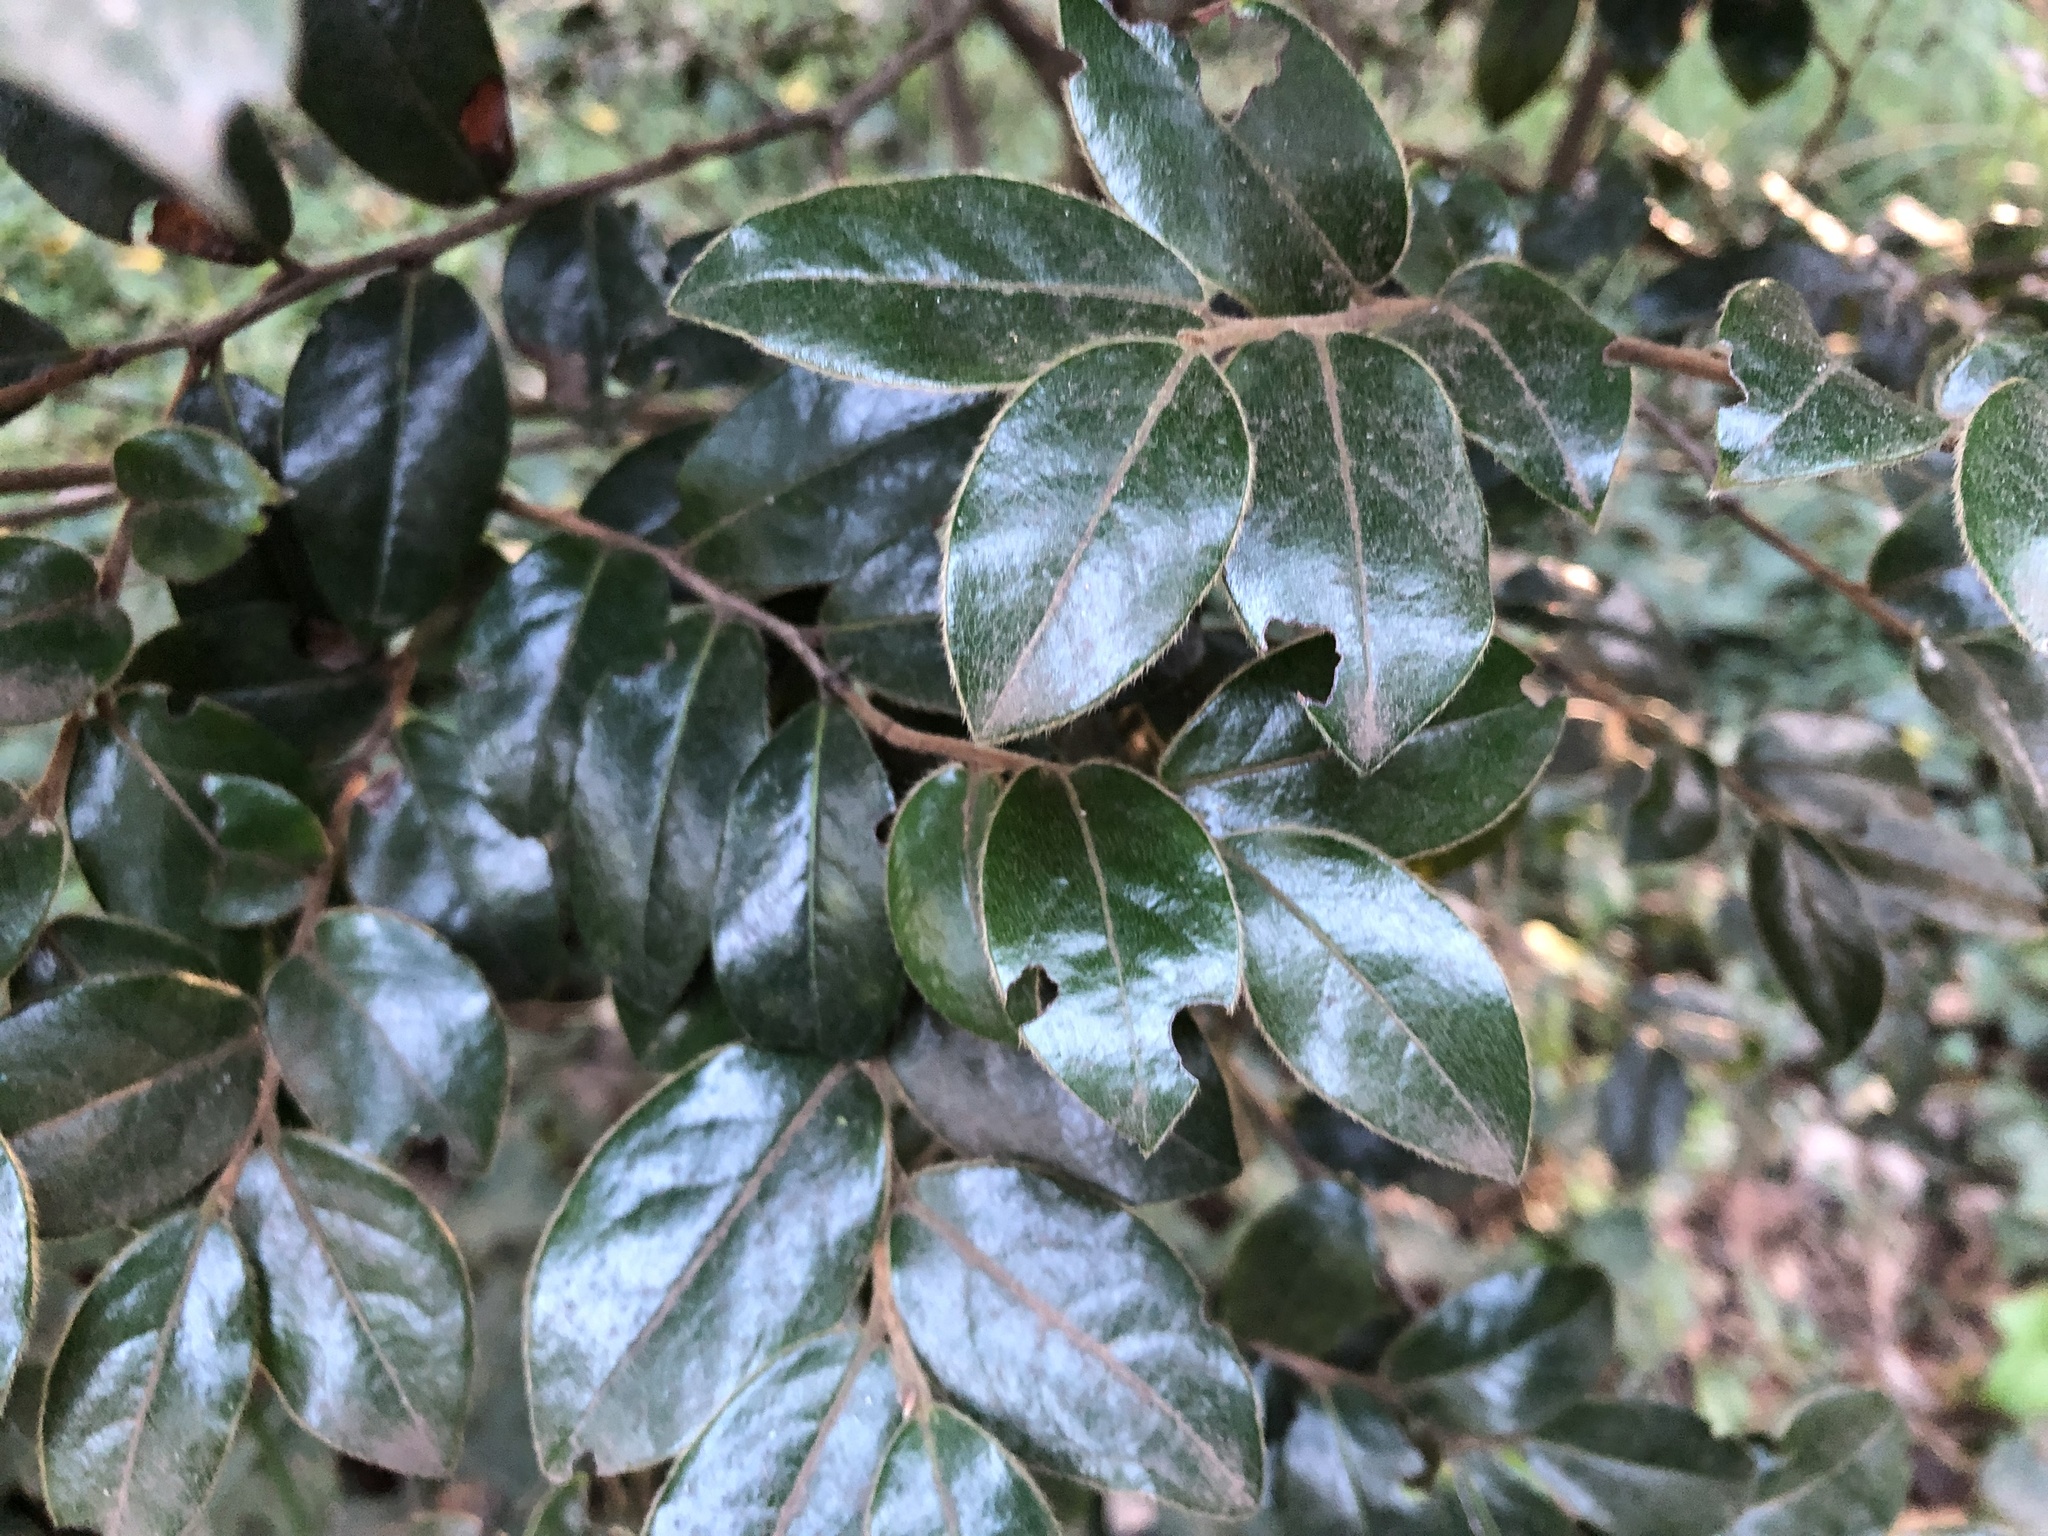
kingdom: Plantae
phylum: Tracheophyta
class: Magnoliopsida
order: Ericales
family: Ebenaceae
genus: Diospyros
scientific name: Diospyros whyteana
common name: Bladder-nut
